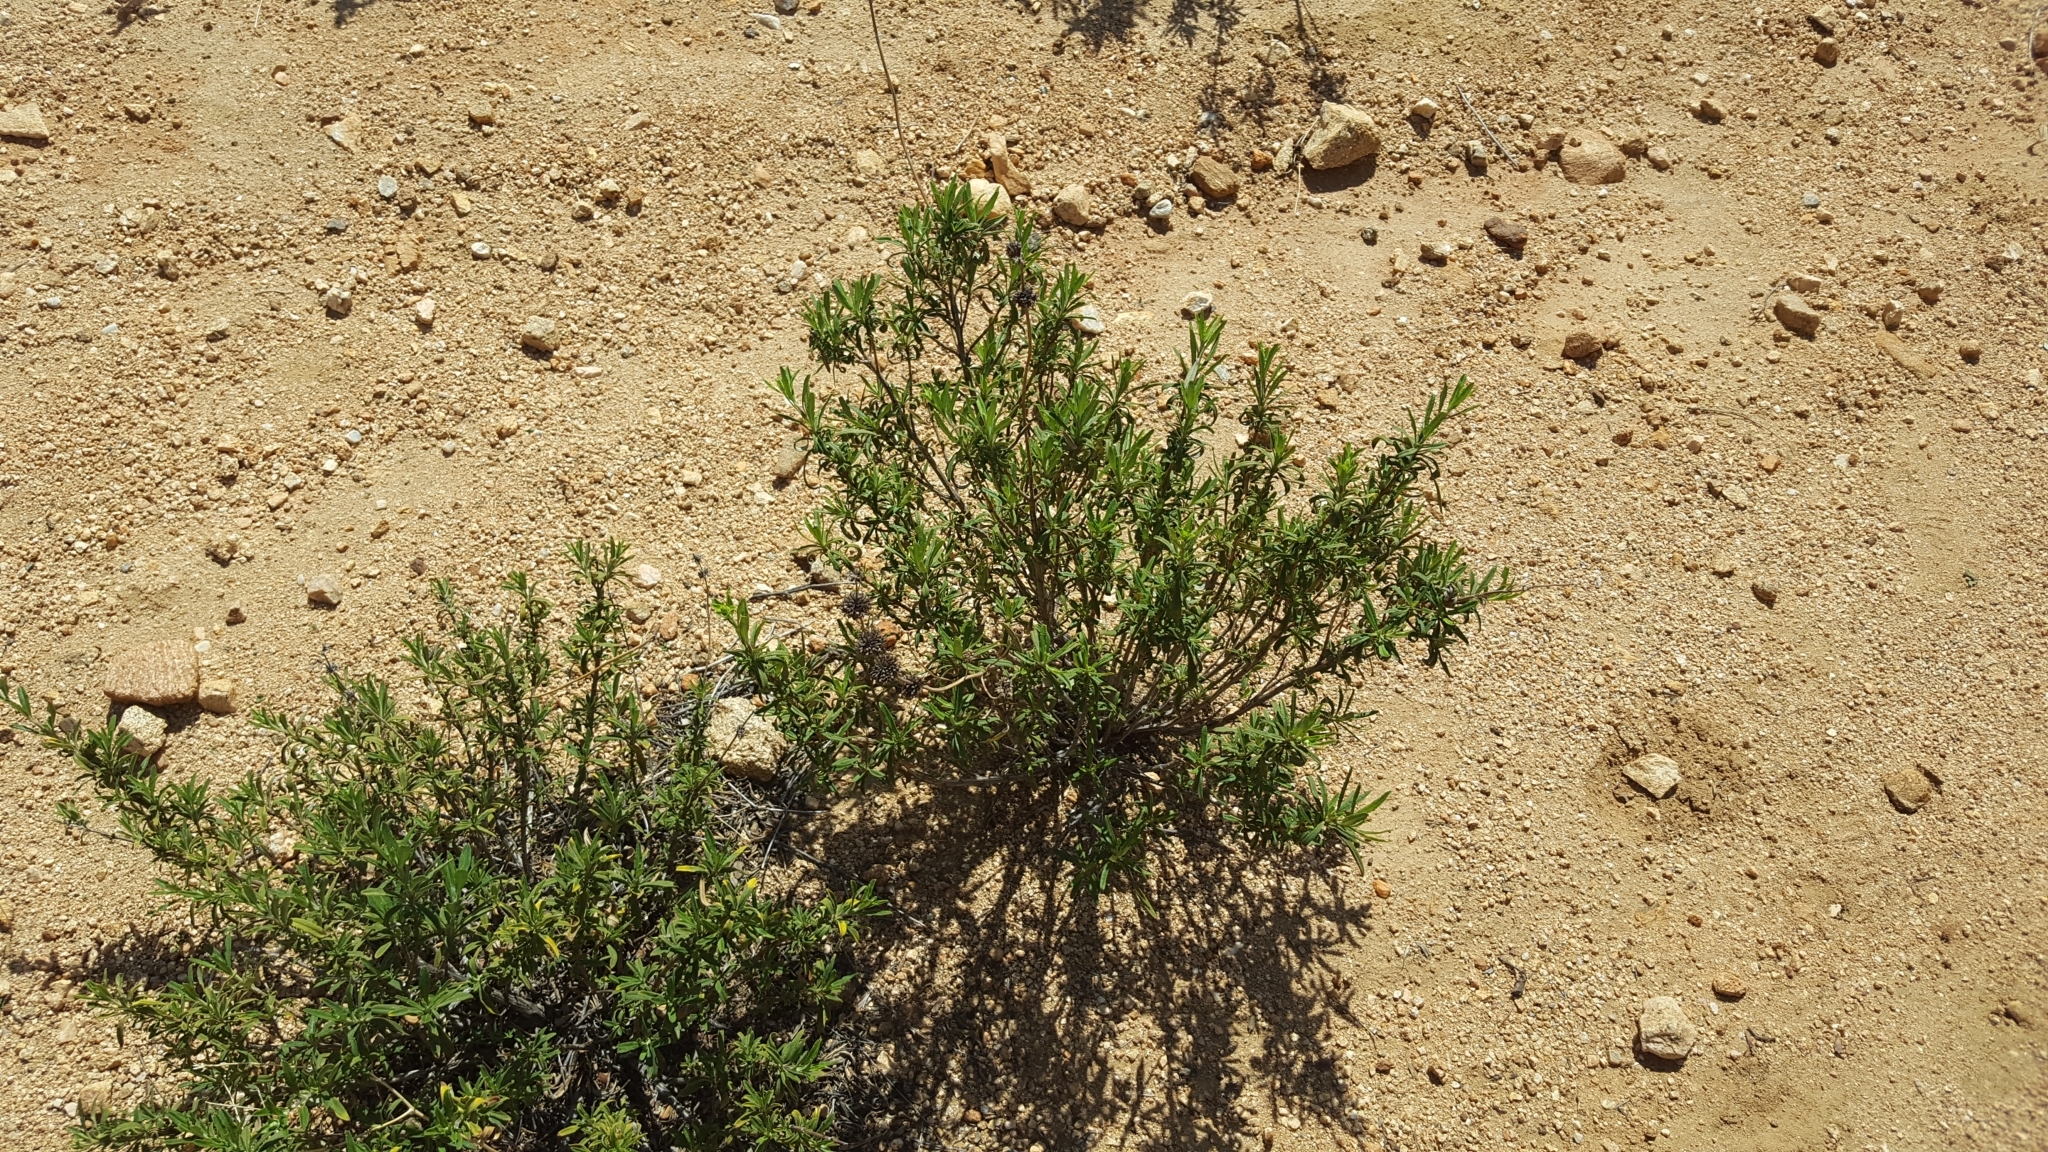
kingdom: Plantae
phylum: Tracheophyta
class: Magnoliopsida
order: Lamiales
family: Lamiaceae
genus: Salvia
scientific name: Salvia mellifera
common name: Black sage
